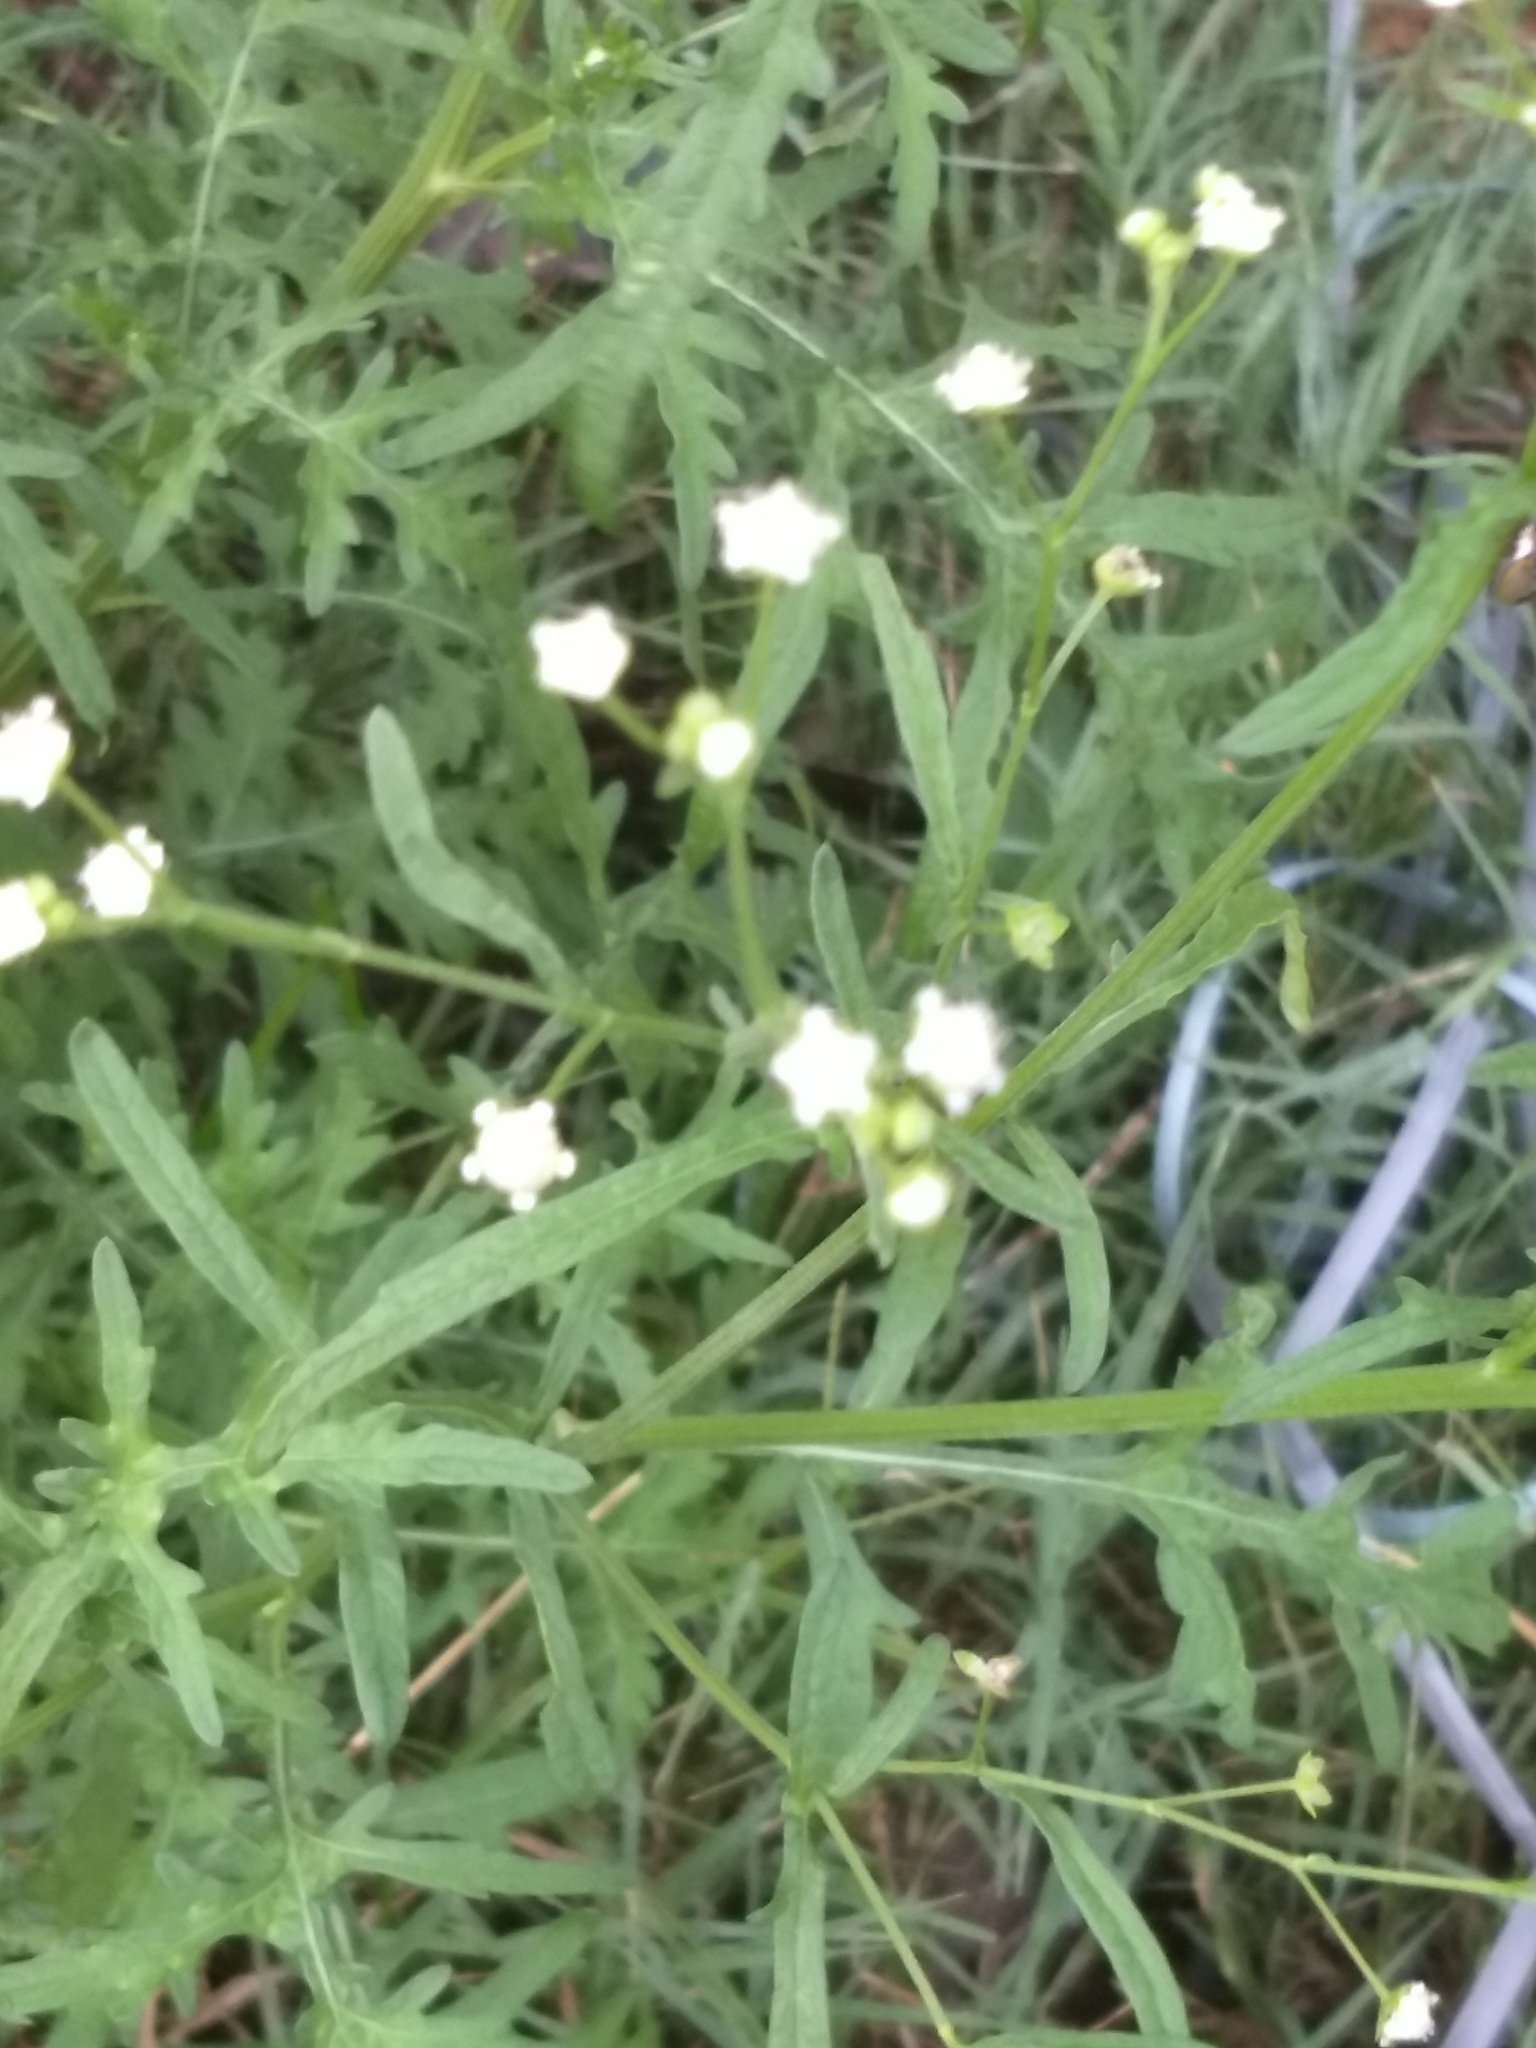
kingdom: Plantae
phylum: Tracheophyta
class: Magnoliopsida
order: Asterales
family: Asteraceae
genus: Parthenium
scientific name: Parthenium hysterophorus
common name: Santa maria feverfew
